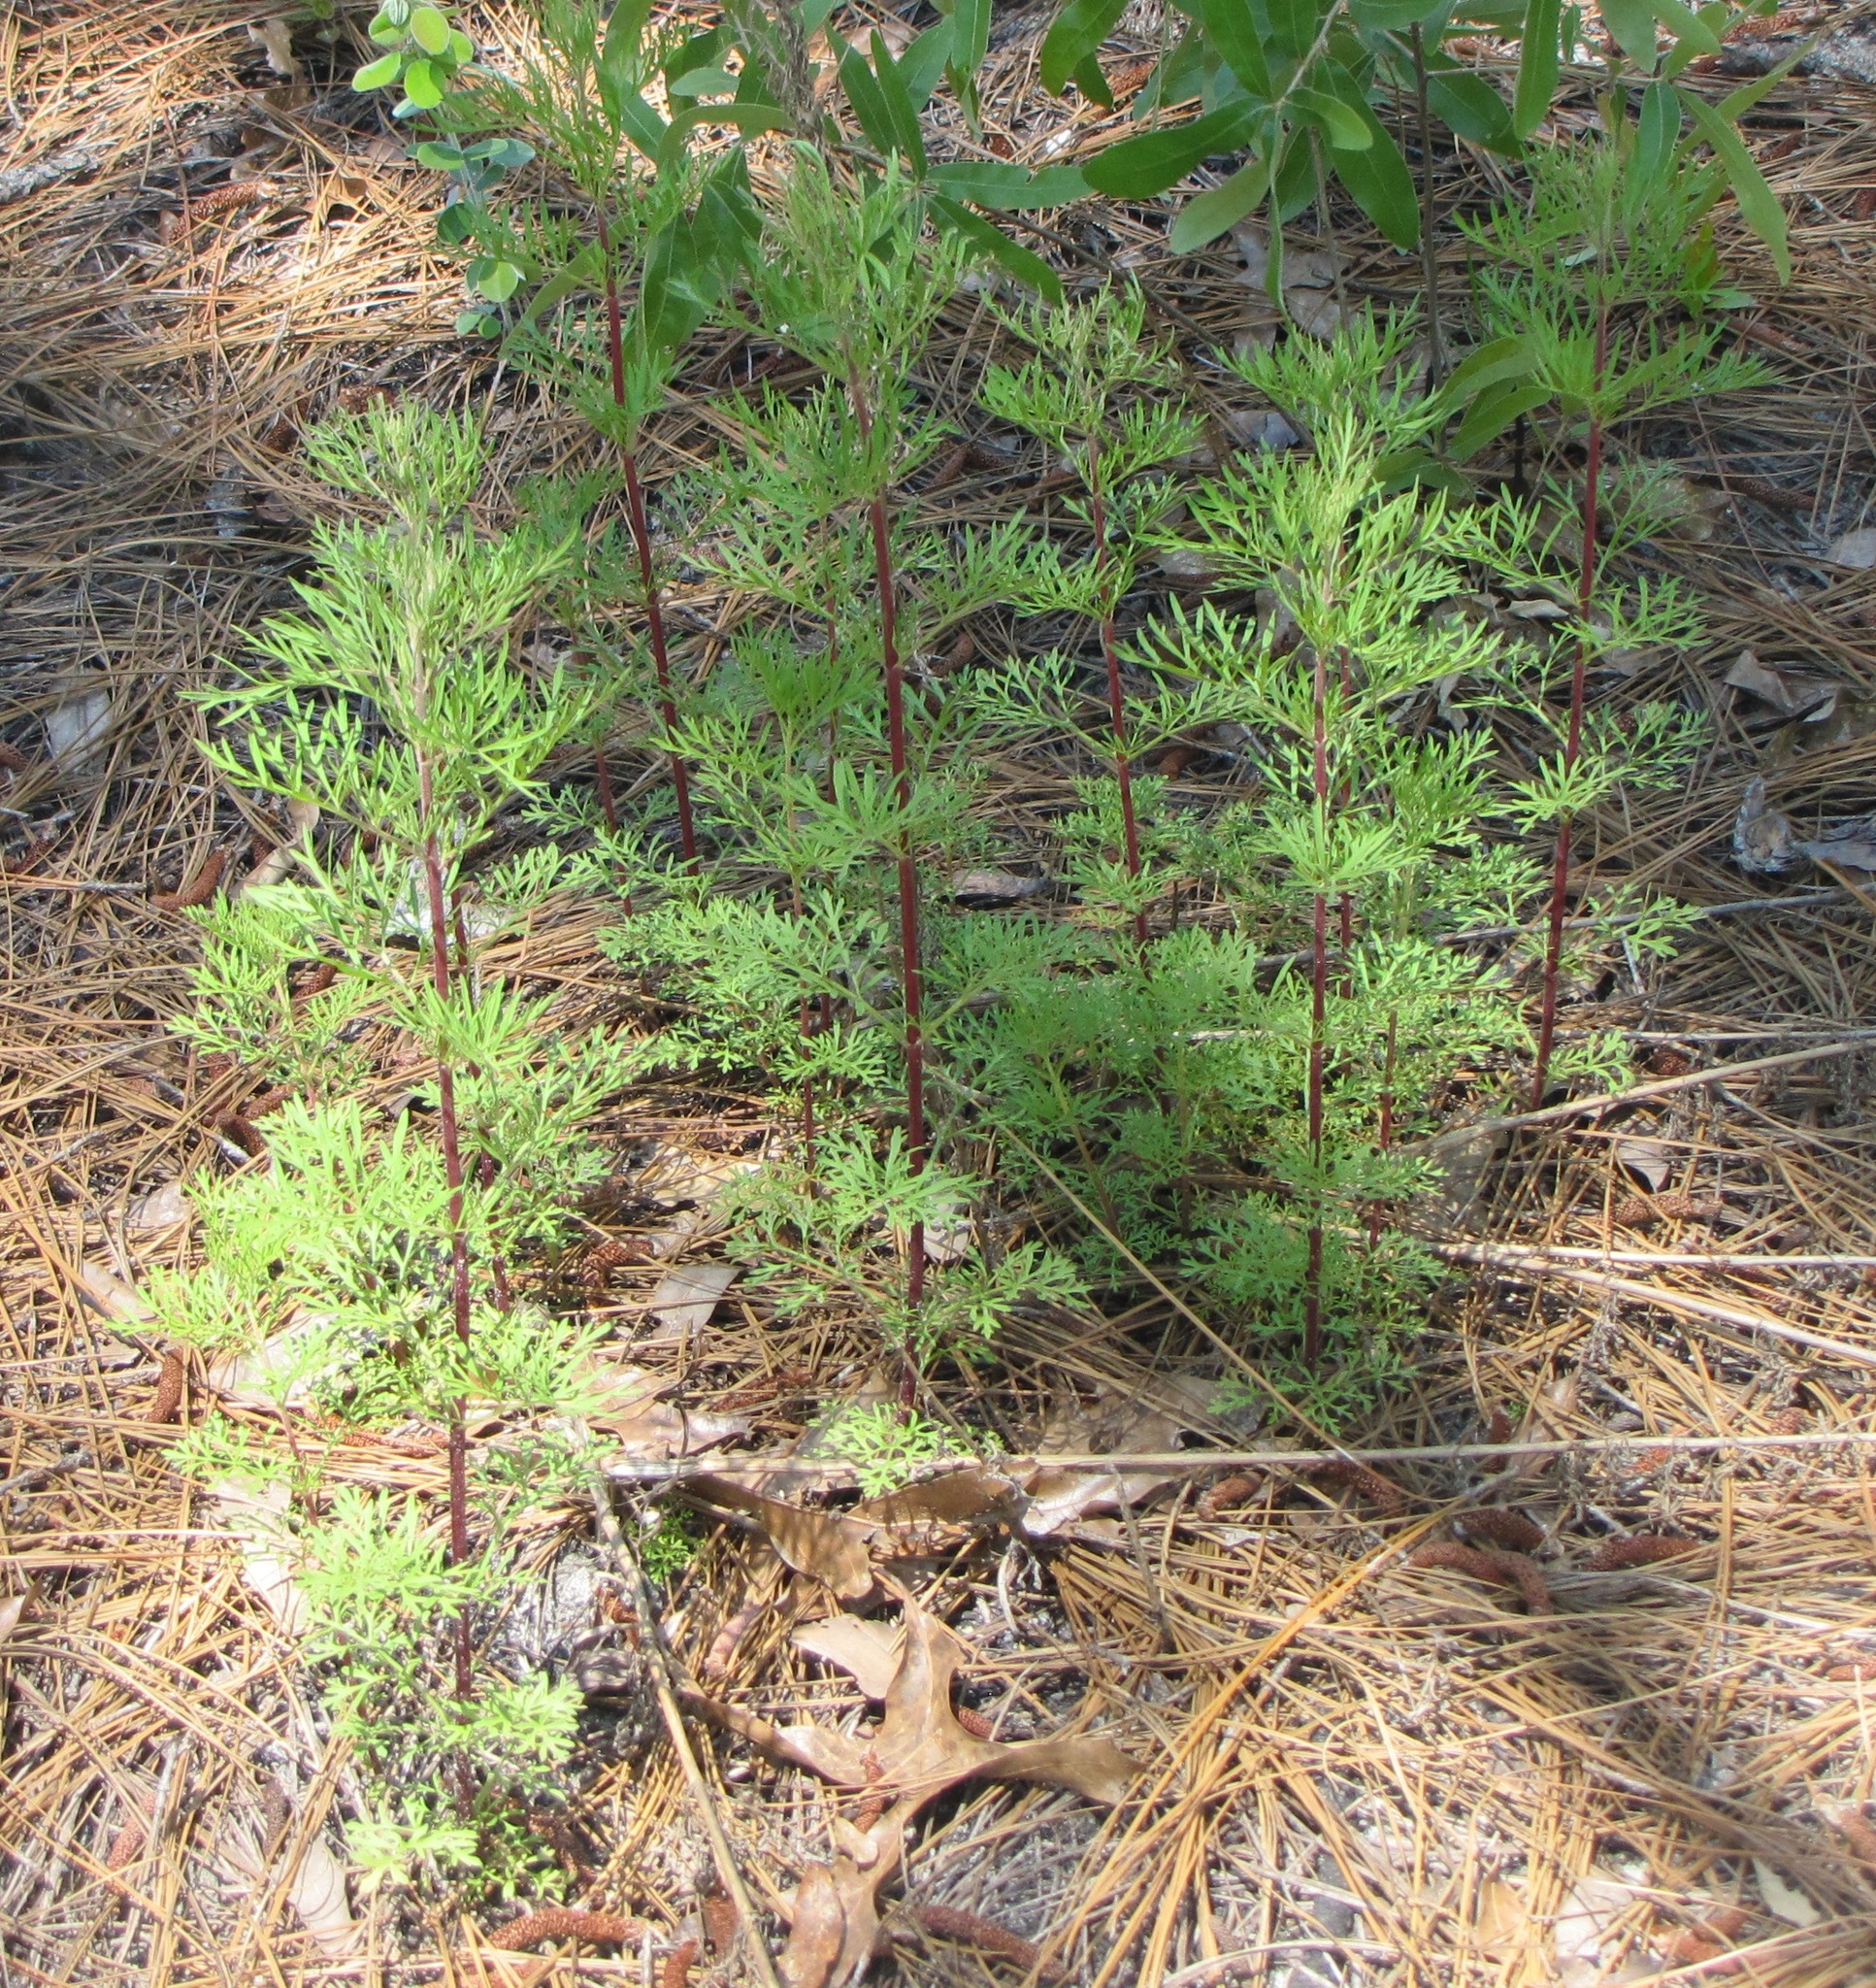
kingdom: Plantae
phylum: Tracheophyta
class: Magnoliopsida
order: Asterales
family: Asteraceae
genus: Eupatorium
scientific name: Eupatorium compositifolium
